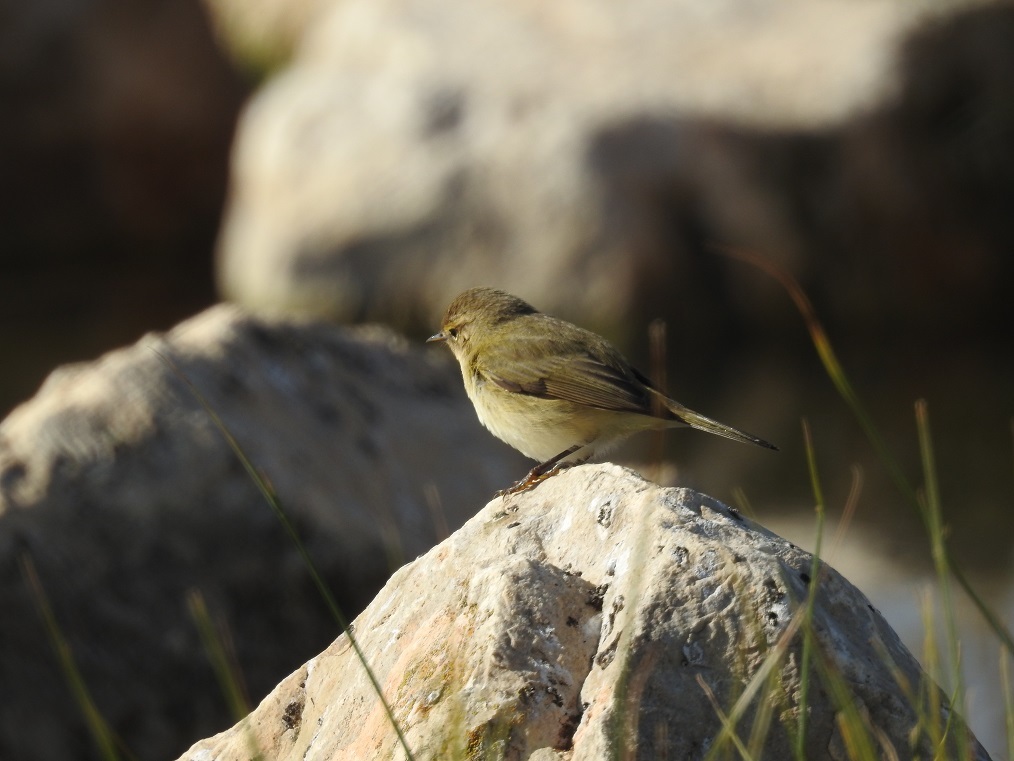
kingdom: Animalia
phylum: Chordata
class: Aves
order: Passeriformes
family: Phylloscopidae
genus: Phylloscopus
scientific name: Phylloscopus collybita
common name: Common chiffchaff
